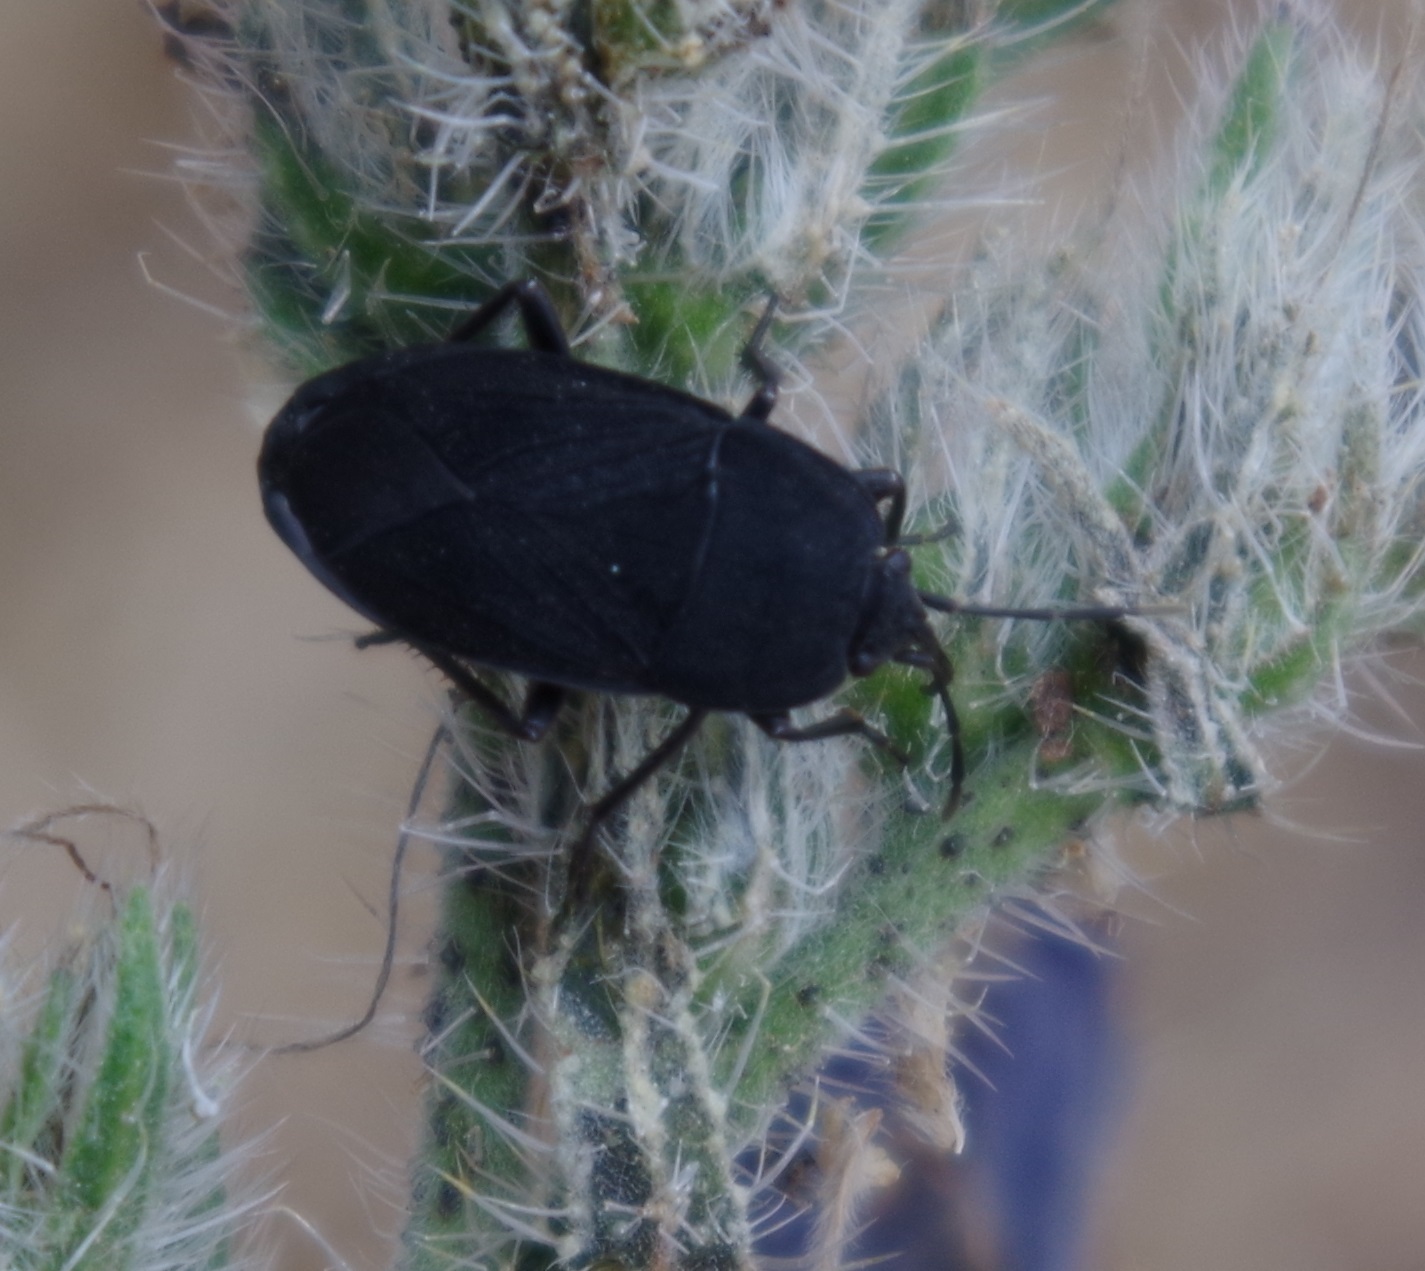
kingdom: Animalia
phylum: Arthropoda
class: Insecta
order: Hemiptera
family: Rhyparochromidae
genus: Aellopus
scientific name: Aellopus atratus
